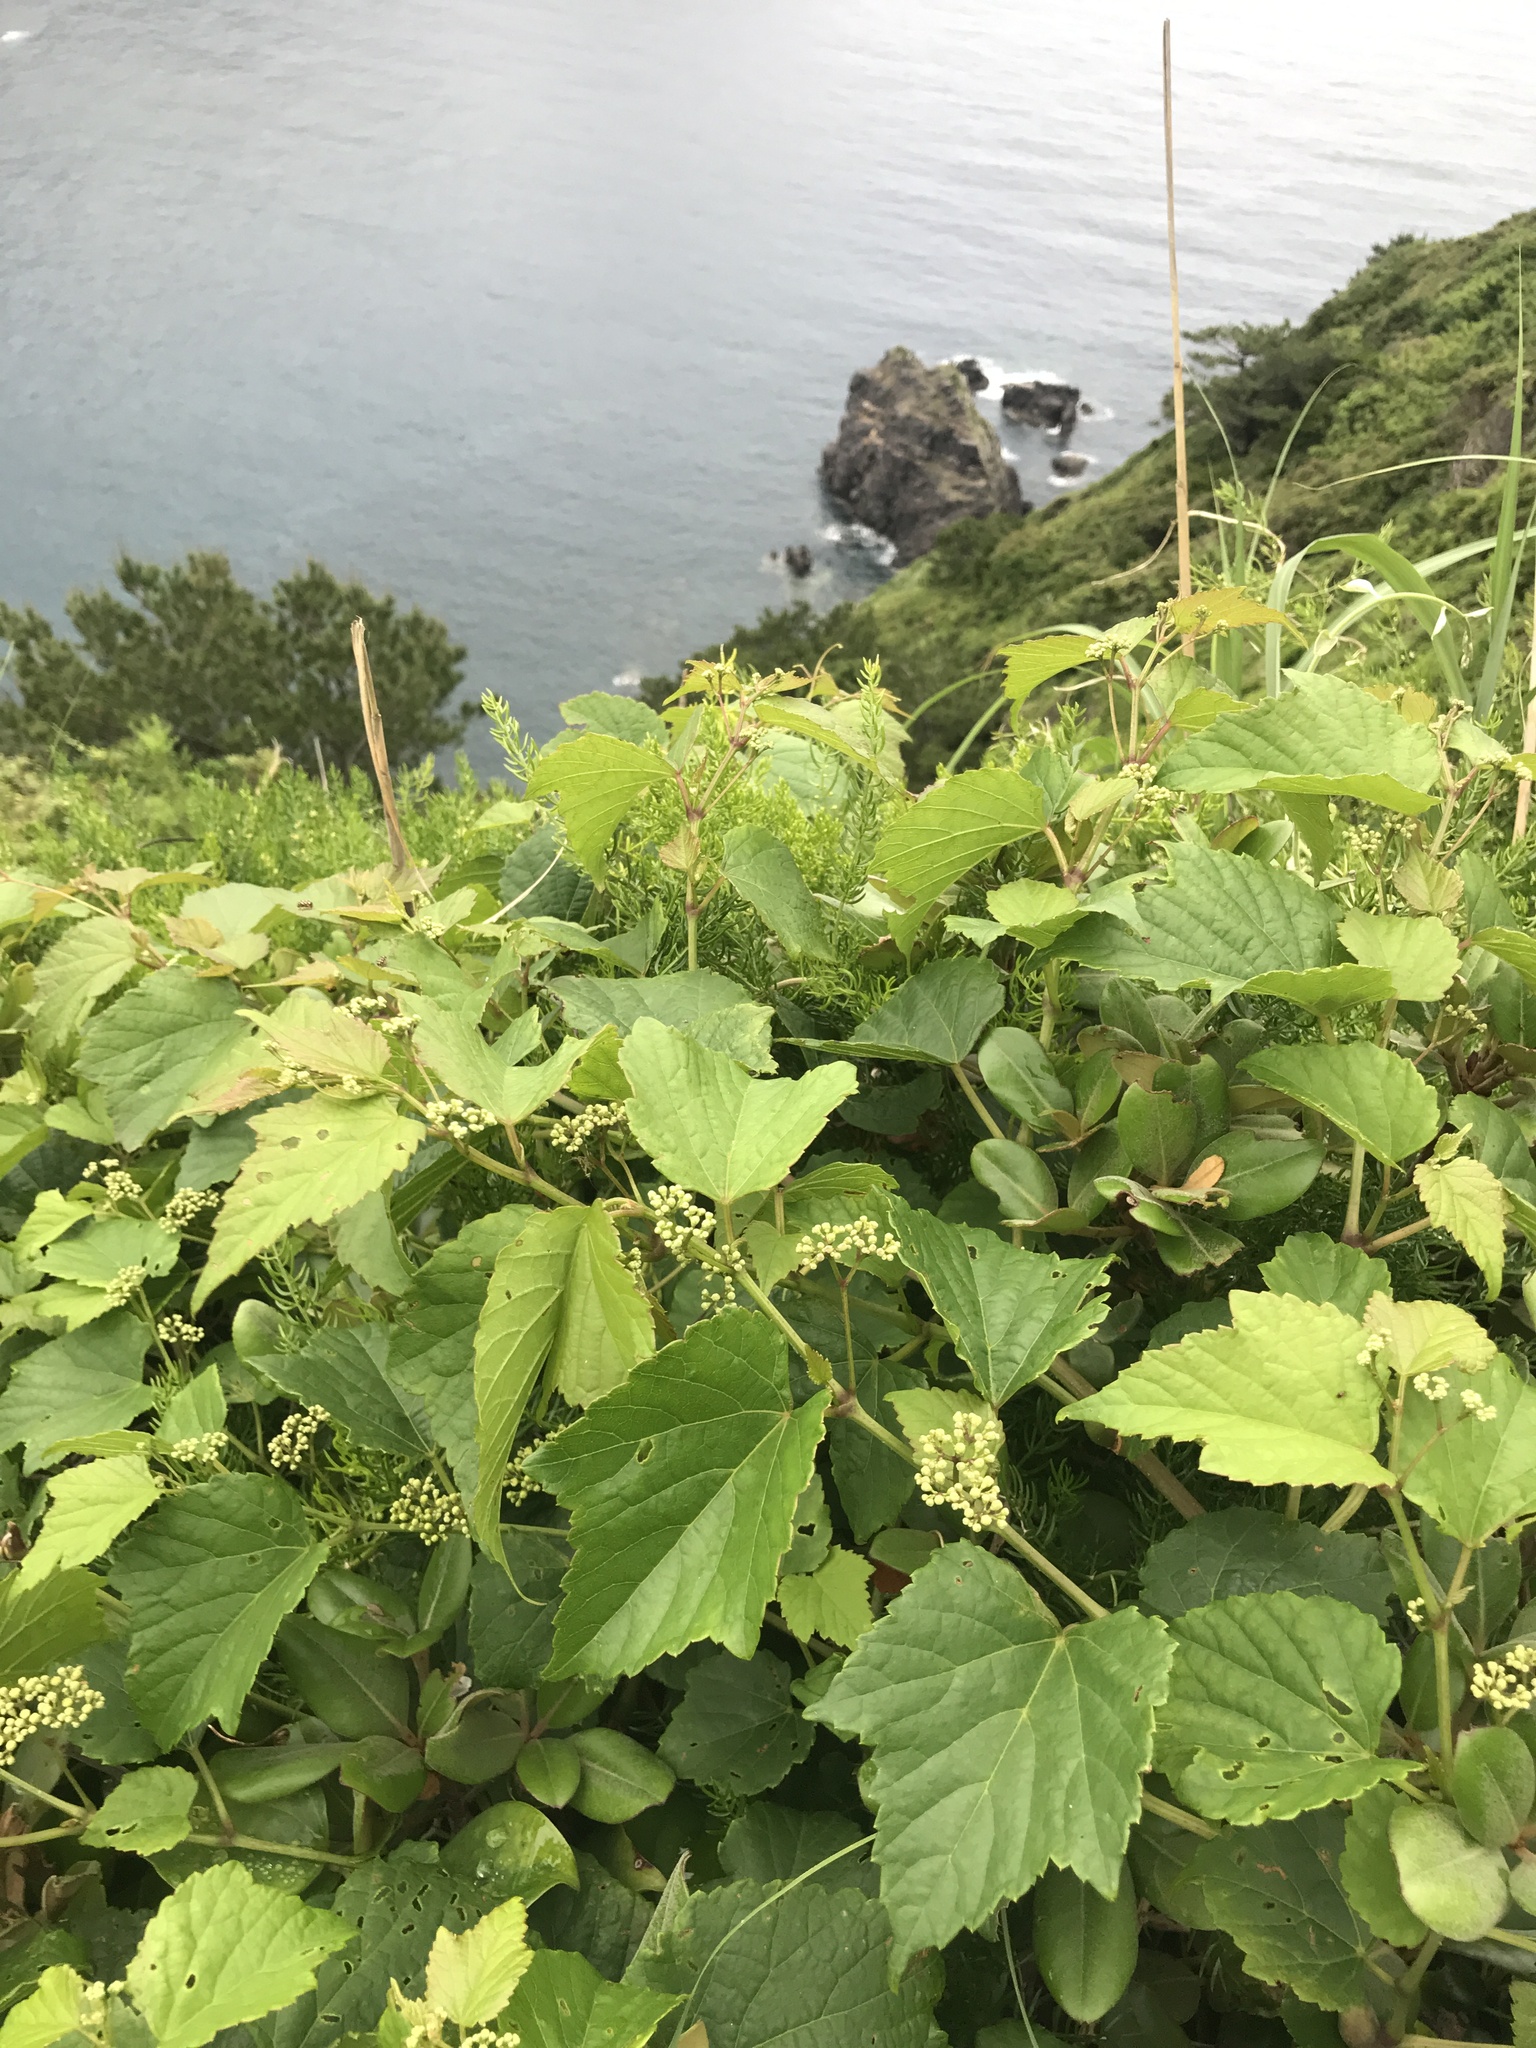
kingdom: Plantae
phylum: Tracheophyta
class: Magnoliopsida
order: Vitales
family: Vitaceae
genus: Ampelopsis
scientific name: Ampelopsis glandulosa
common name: Amur peppervine
